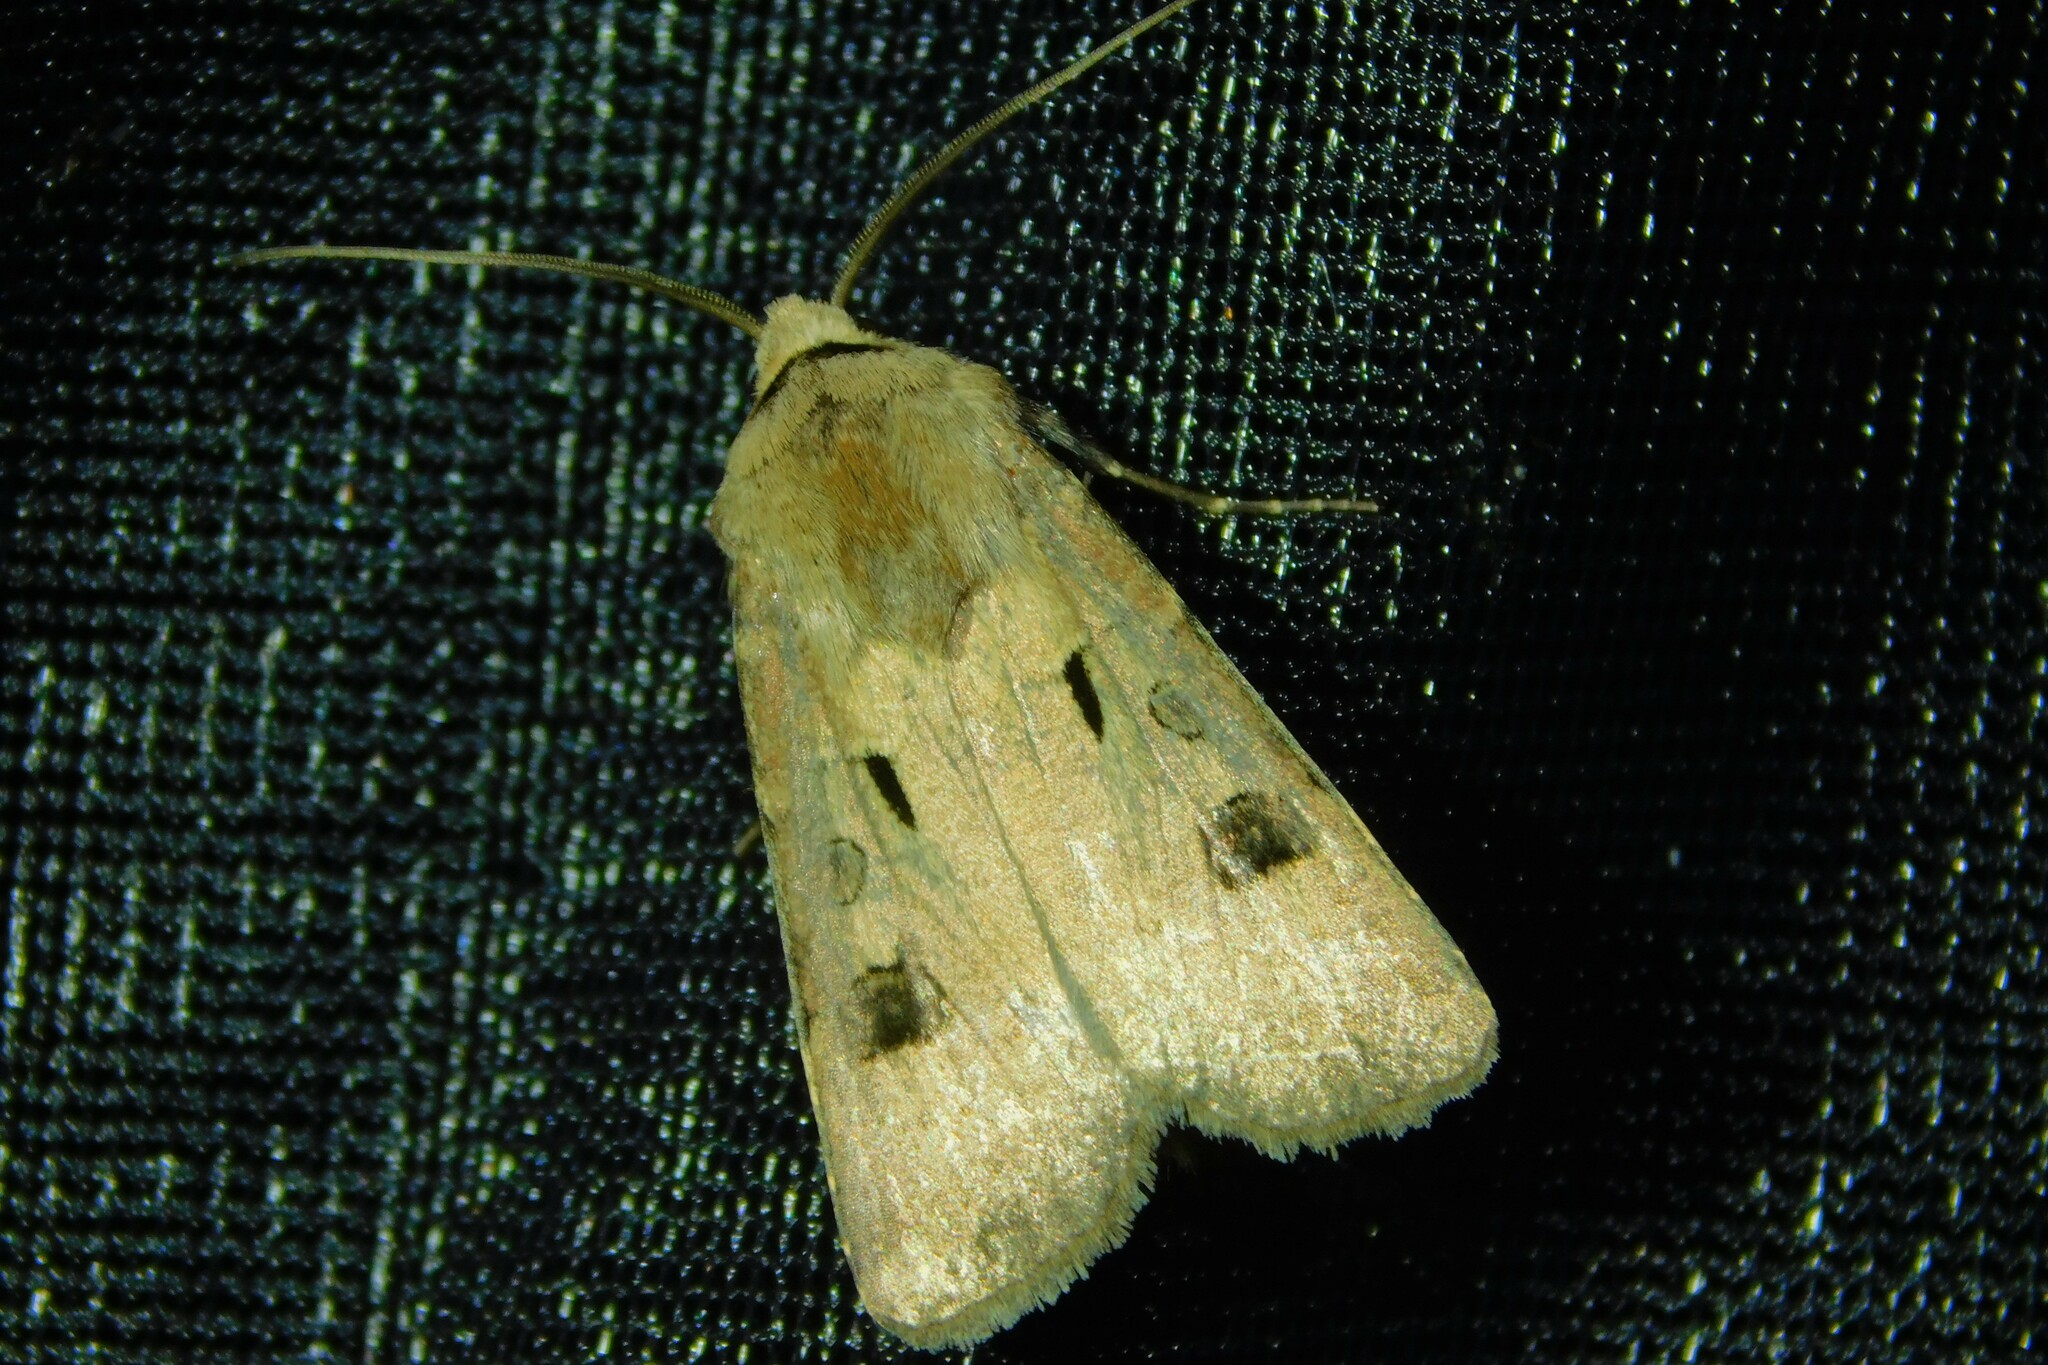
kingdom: Animalia
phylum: Arthropoda
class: Insecta
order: Lepidoptera
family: Noctuidae
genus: Agrotis
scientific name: Agrotis exclamationis
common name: Heart and dart
